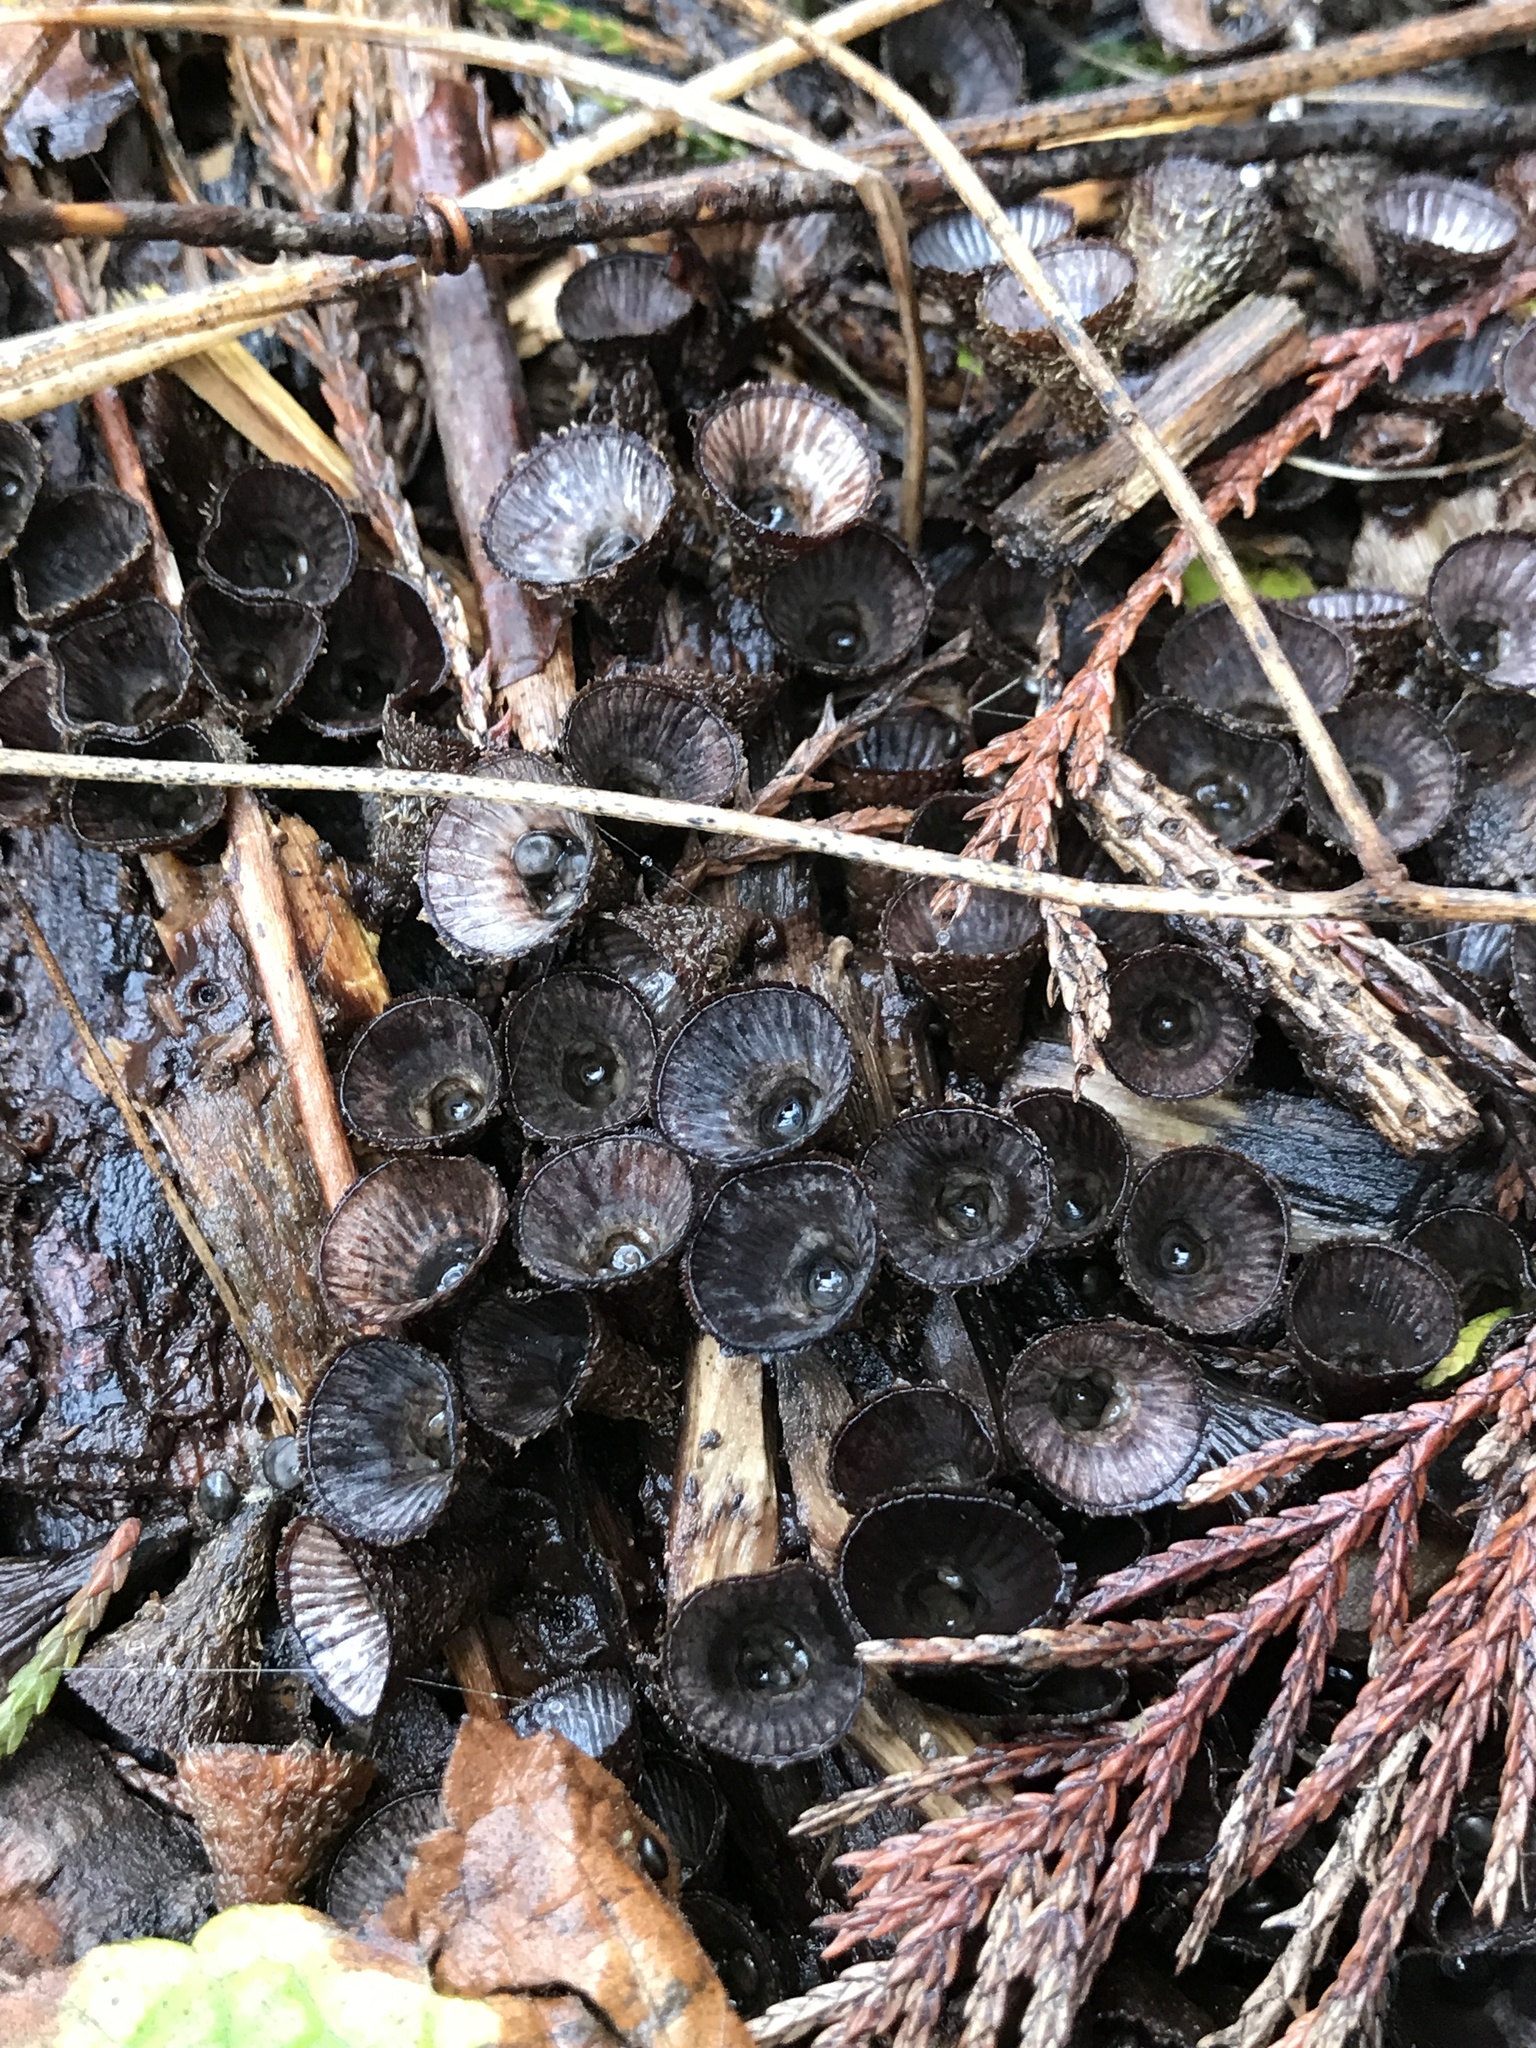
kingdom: Fungi
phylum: Basidiomycota
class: Agaricomycetes
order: Agaricales
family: Agaricaceae
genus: Cyathus
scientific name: Cyathus striatus
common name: Fluted bird's nest
